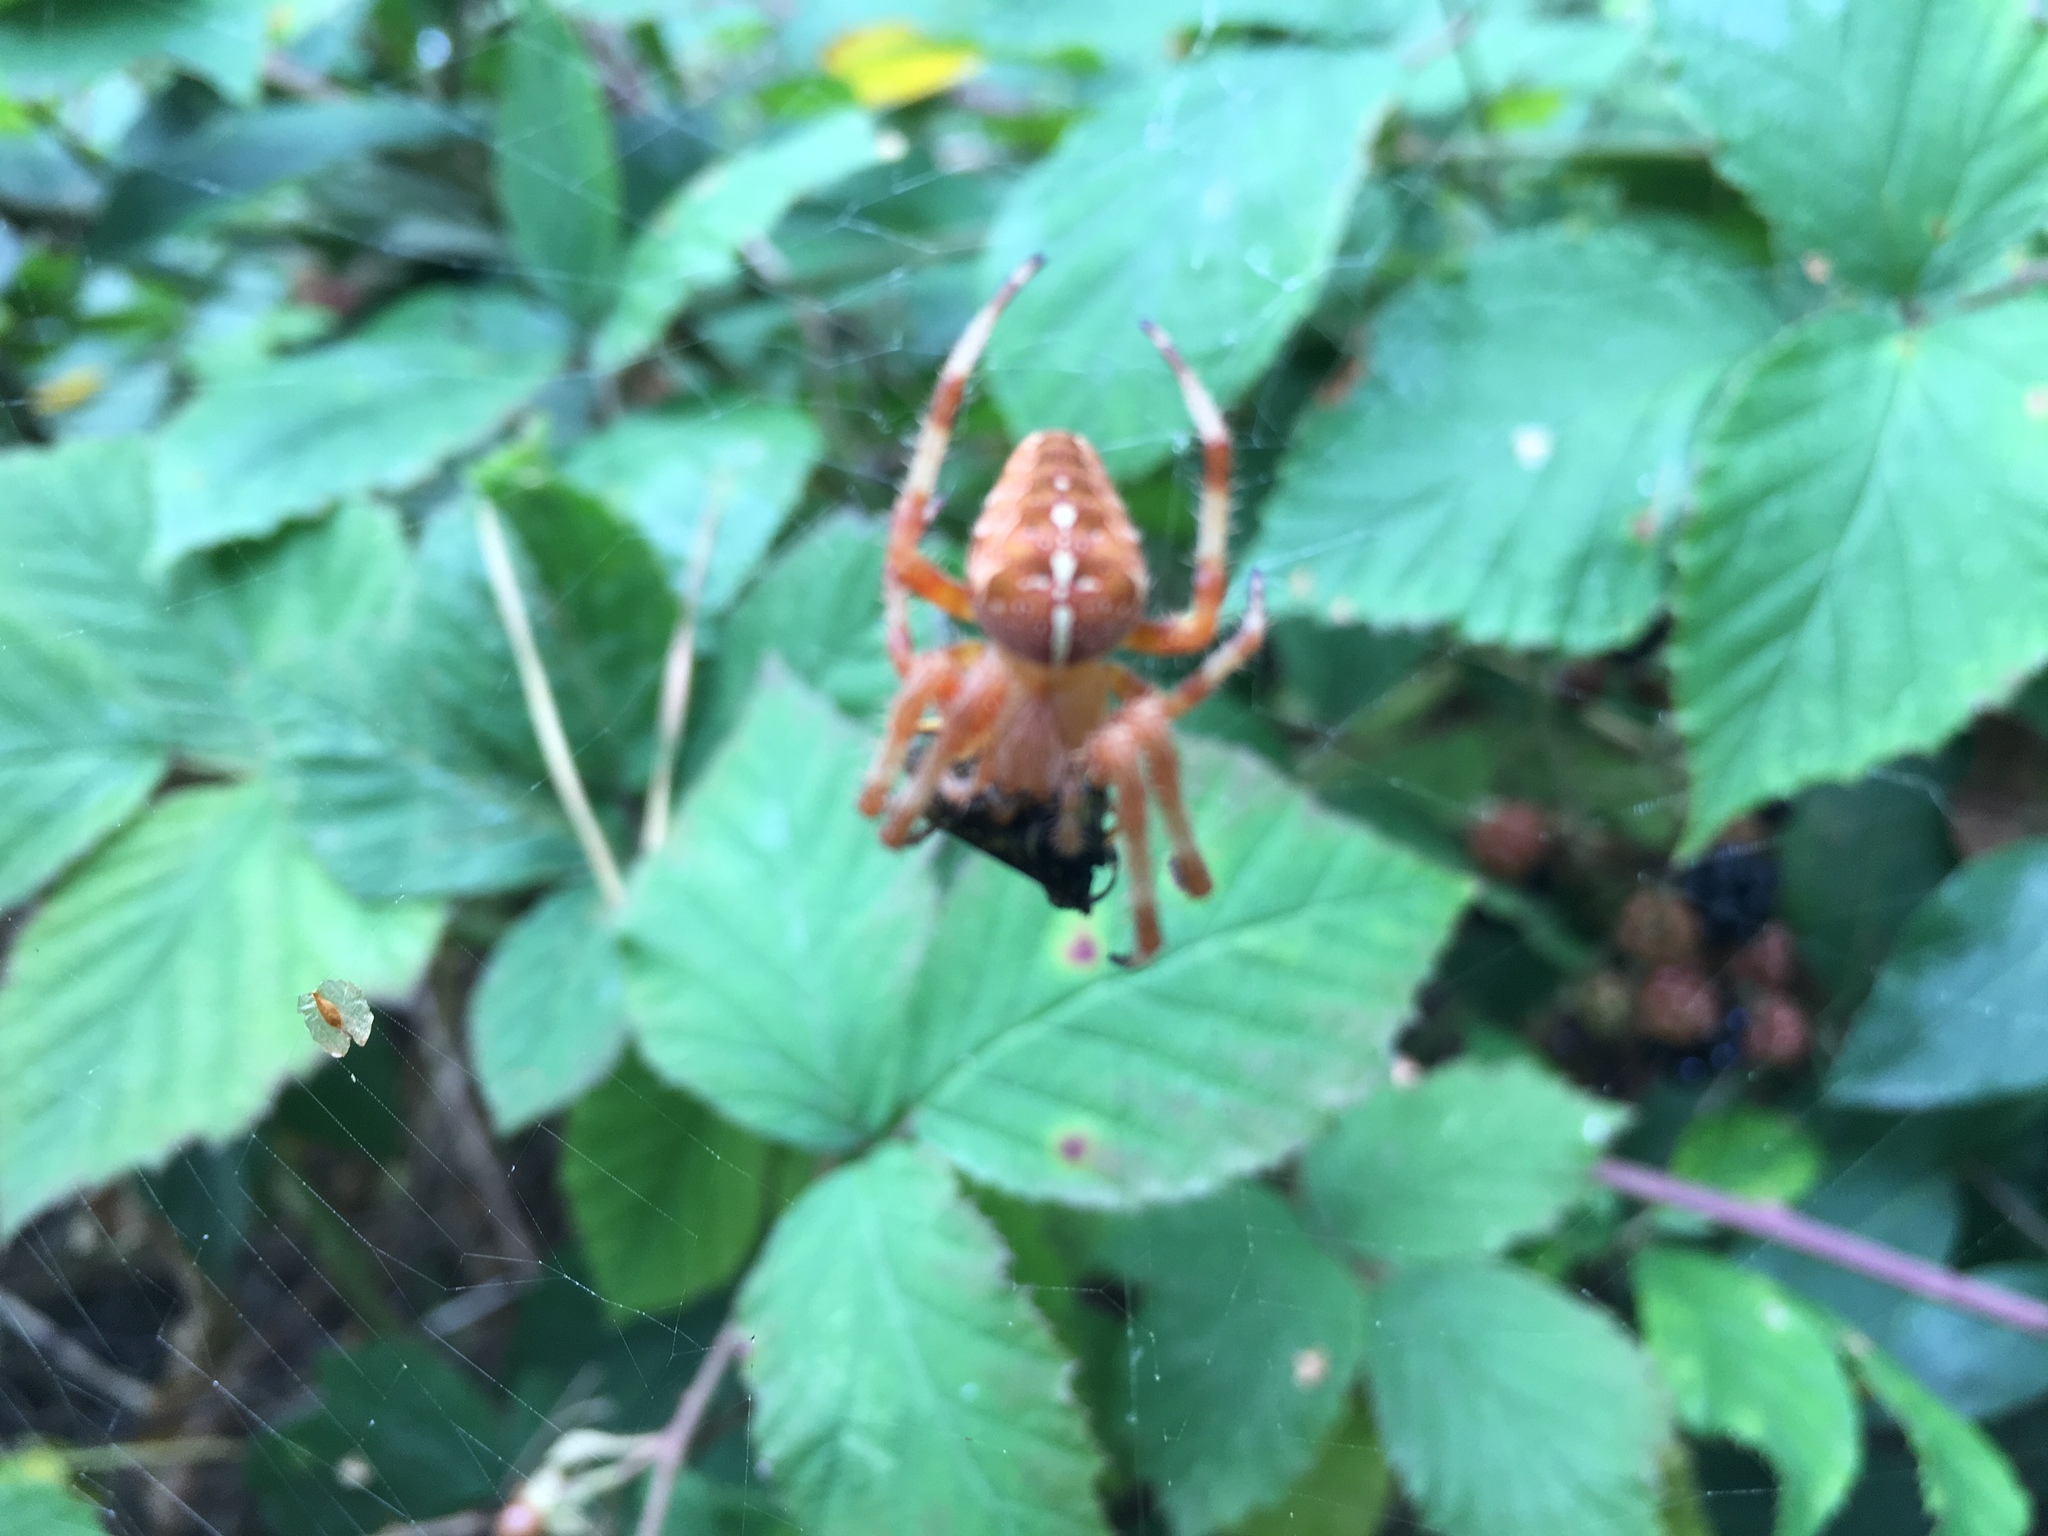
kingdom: Animalia
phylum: Arthropoda
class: Arachnida
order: Araneae
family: Araneidae
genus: Araneus
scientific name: Araneus diadematus
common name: Cross orbweaver
